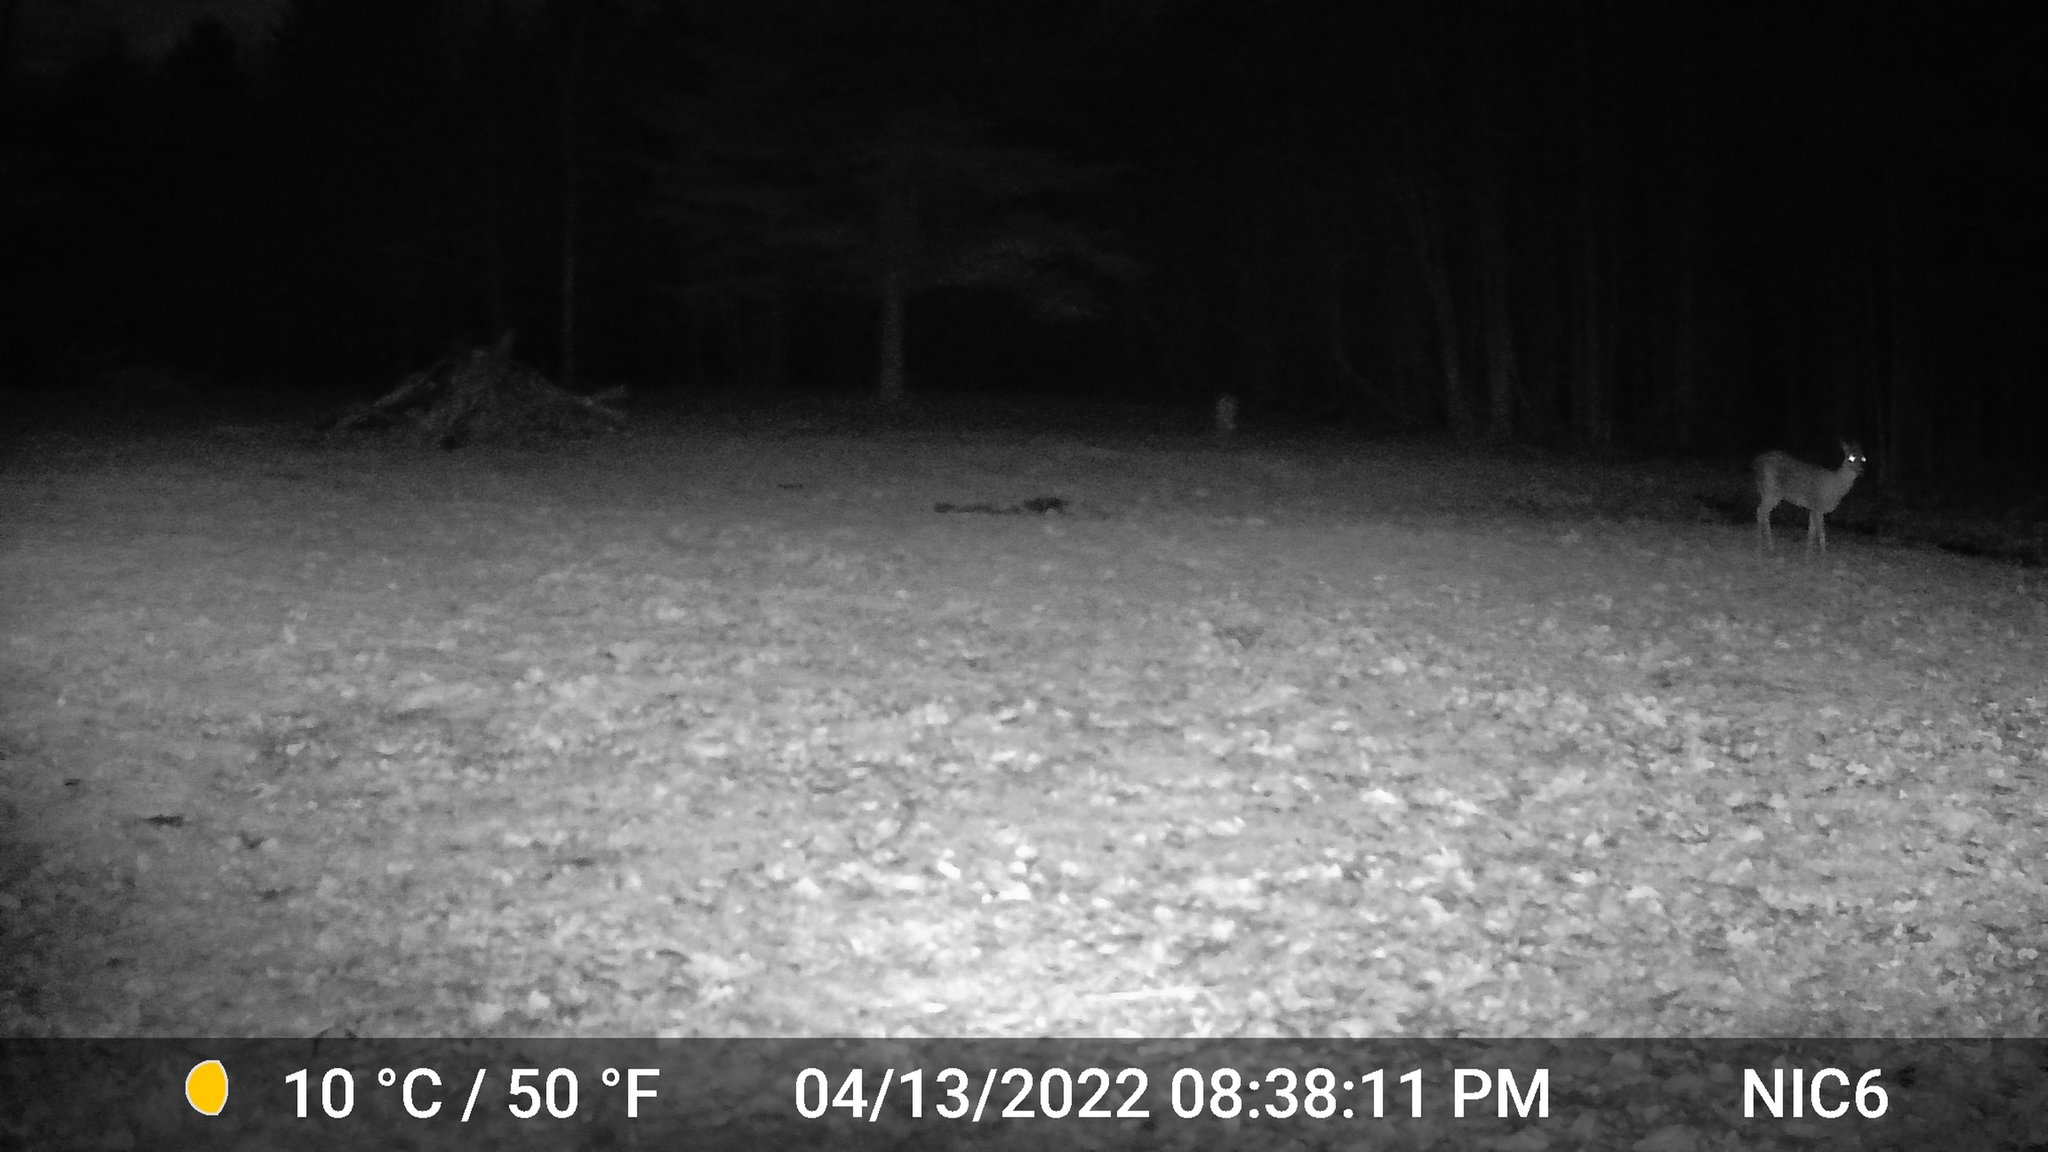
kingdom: Animalia
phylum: Chordata
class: Mammalia
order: Artiodactyla
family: Cervidae
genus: Odocoileus
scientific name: Odocoileus virginianus
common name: White-tailed deer
